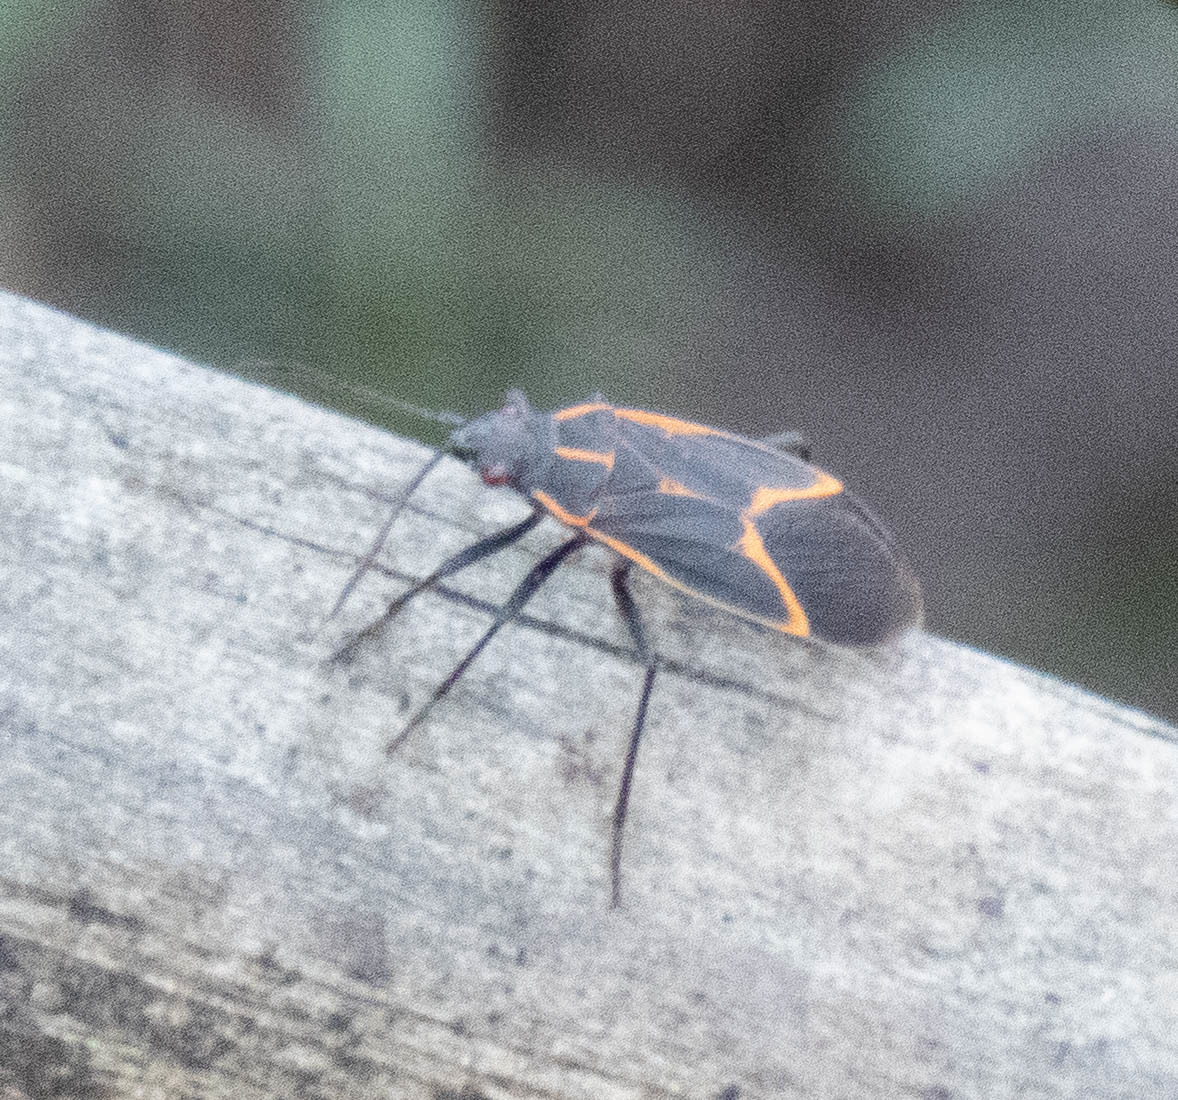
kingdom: Animalia
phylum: Arthropoda
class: Insecta
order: Hemiptera
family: Rhopalidae
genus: Boisea
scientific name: Boisea trivittata
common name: Boxelder bug
